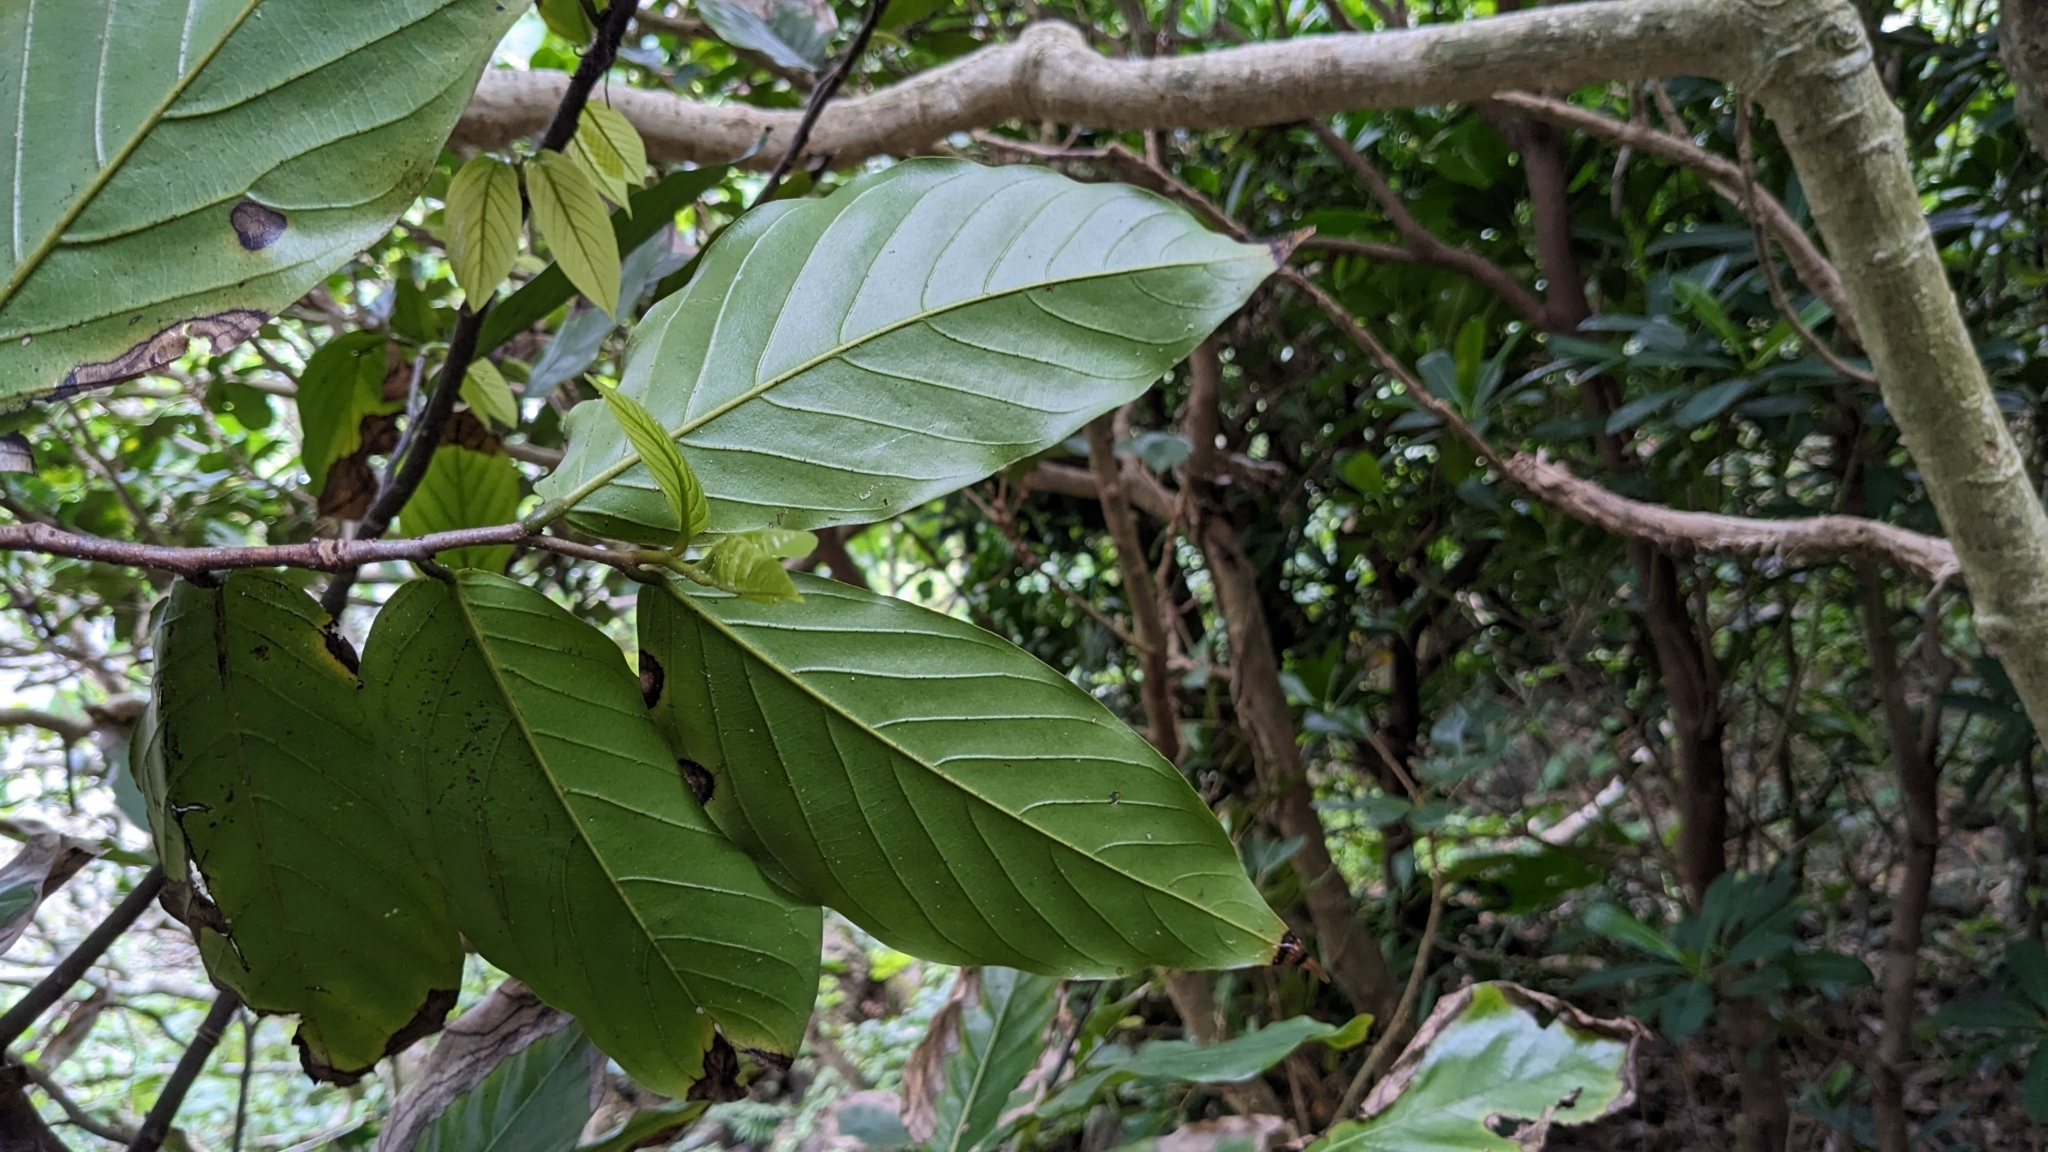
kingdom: Plantae
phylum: Tracheophyta
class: Magnoliopsida
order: Magnoliales
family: Annonaceae
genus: Polyalthia
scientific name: Polyalthia liukiuensis
